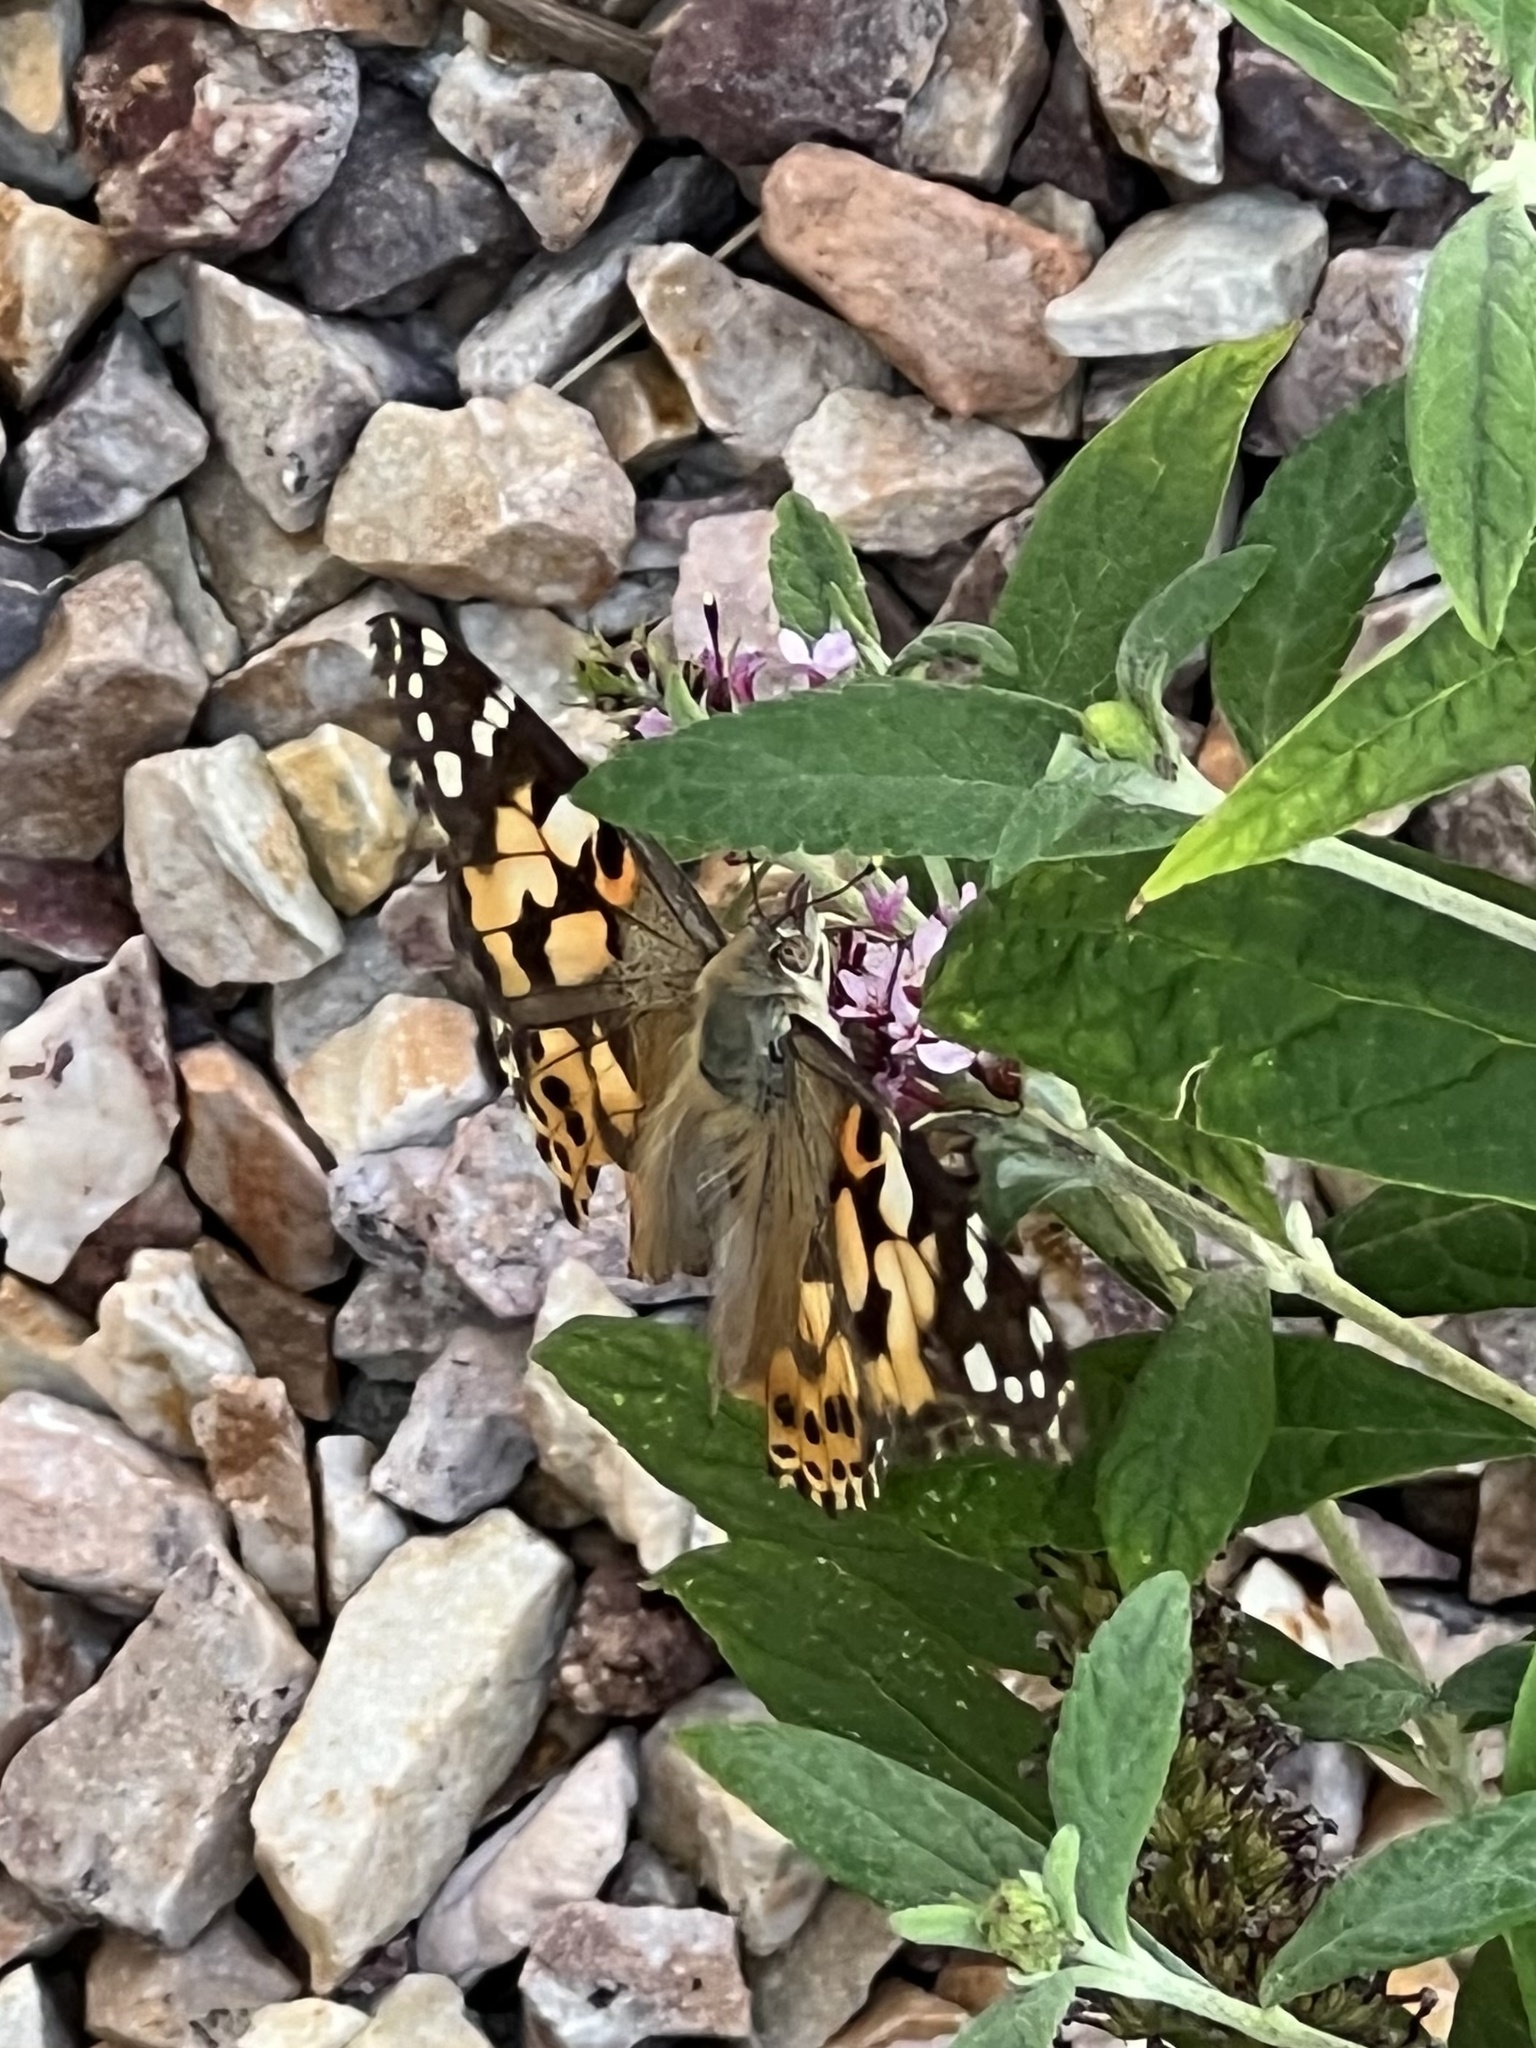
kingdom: Animalia
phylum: Arthropoda
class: Insecta
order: Lepidoptera
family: Nymphalidae
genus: Vanessa
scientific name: Vanessa cardui
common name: Painted lady
